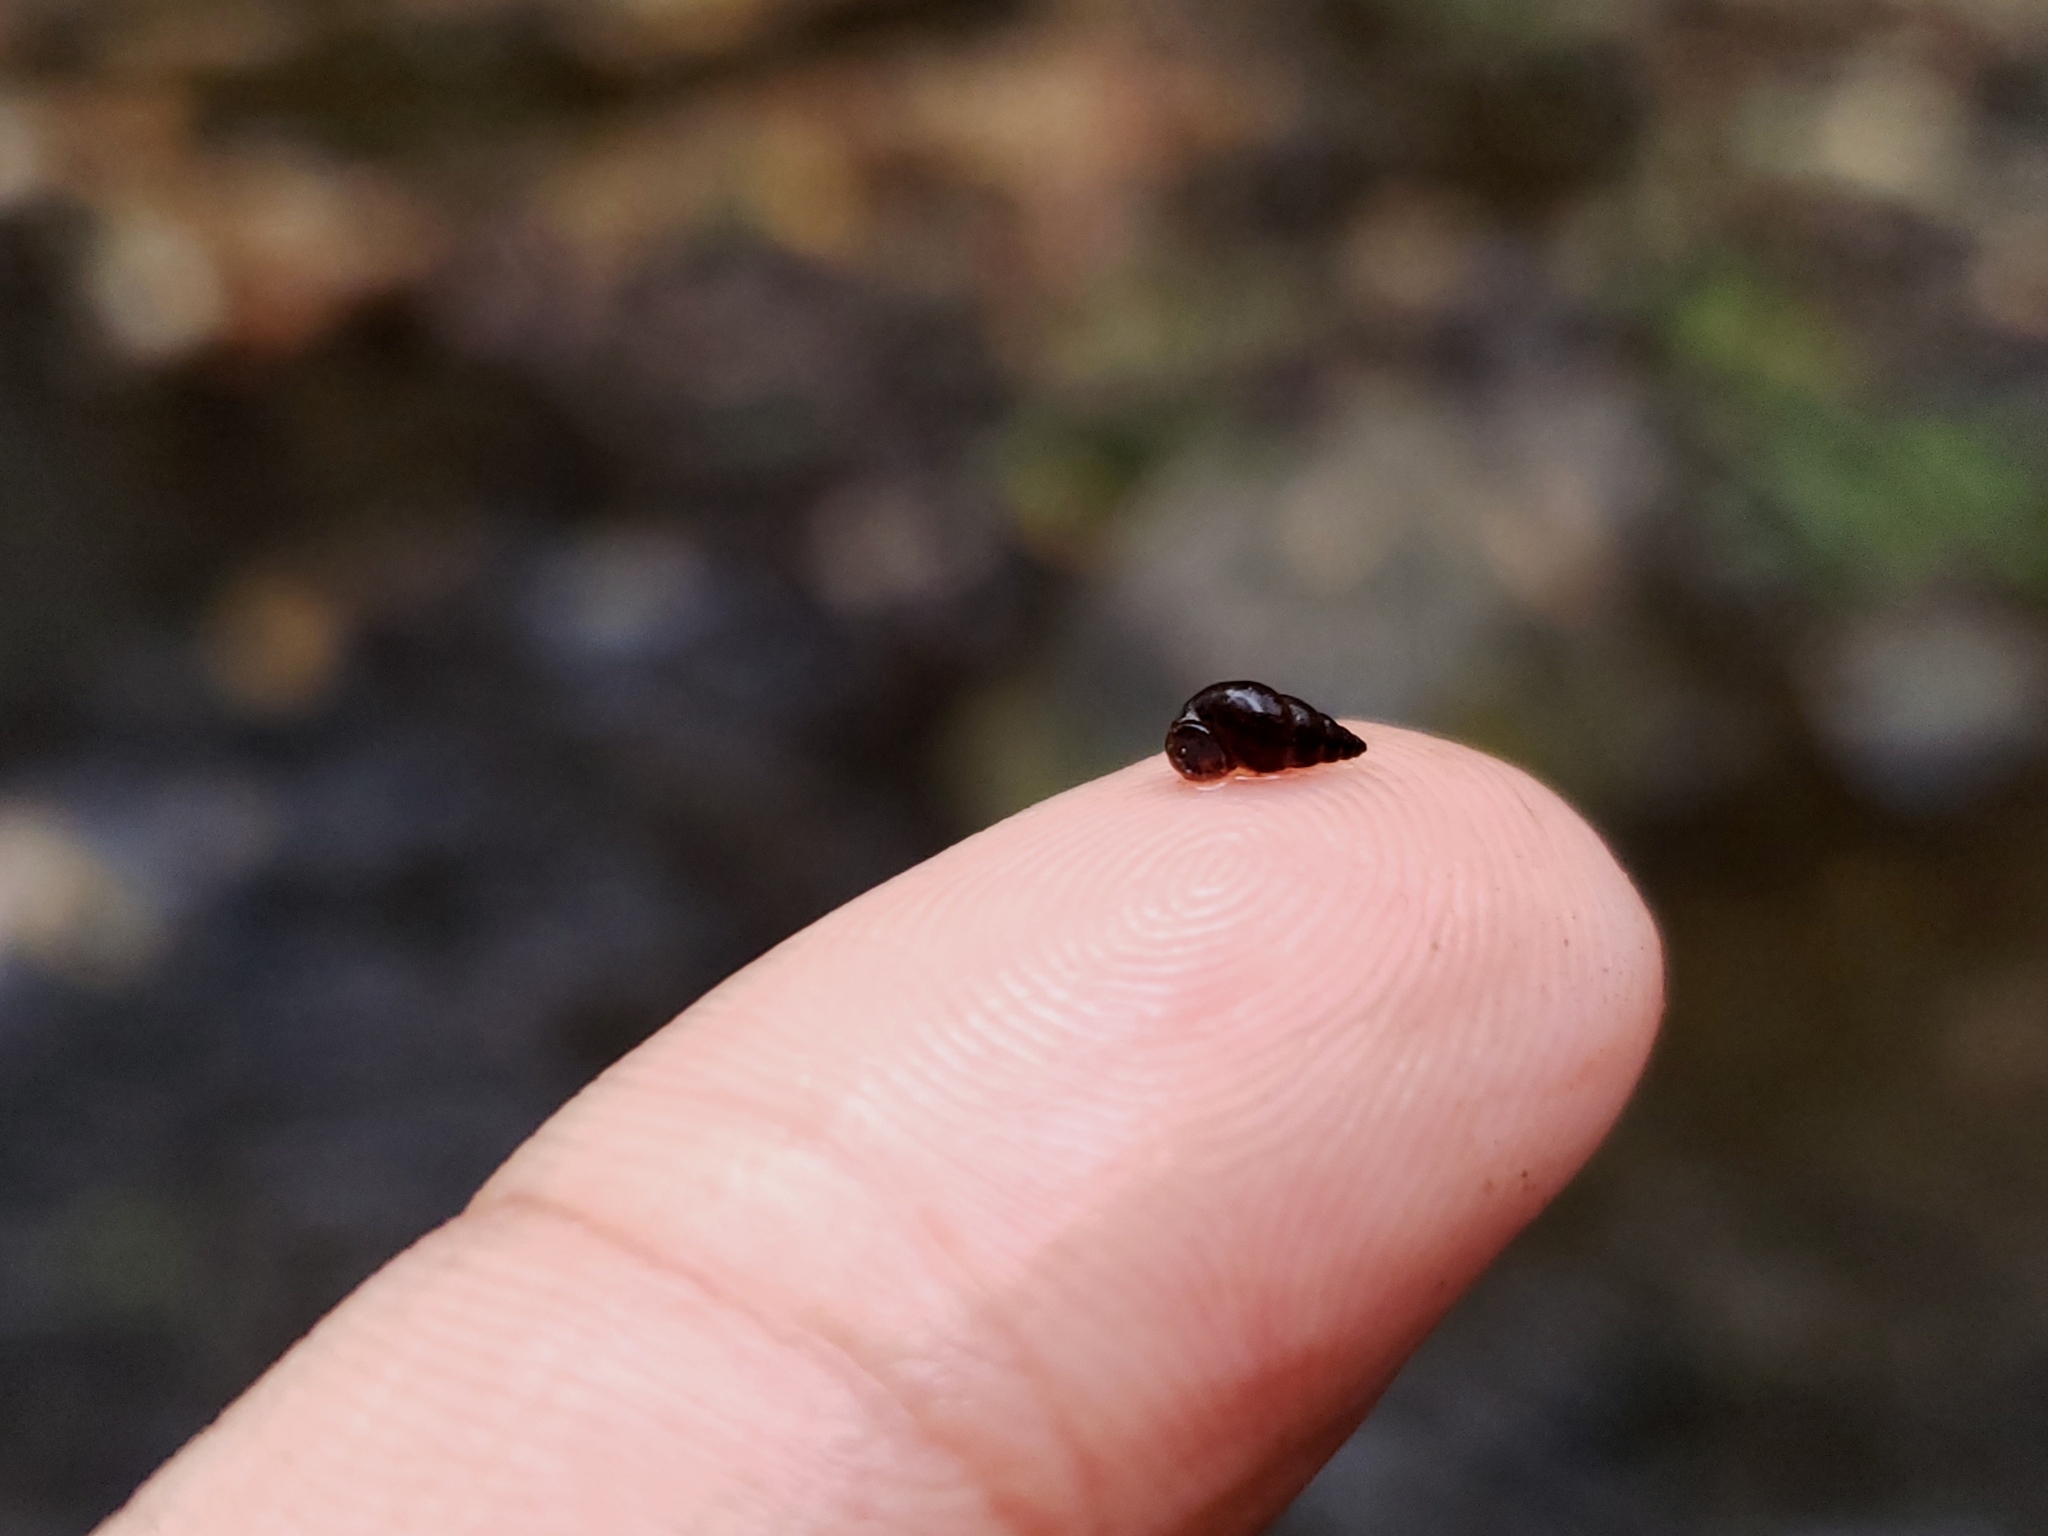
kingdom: Animalia
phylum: Mollusca
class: Gastropoda
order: Littorinimorpha
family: Tateidae
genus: Potamopyrgus
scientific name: Potamopyrgus antipodarum
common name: Jenkins' spire snail
